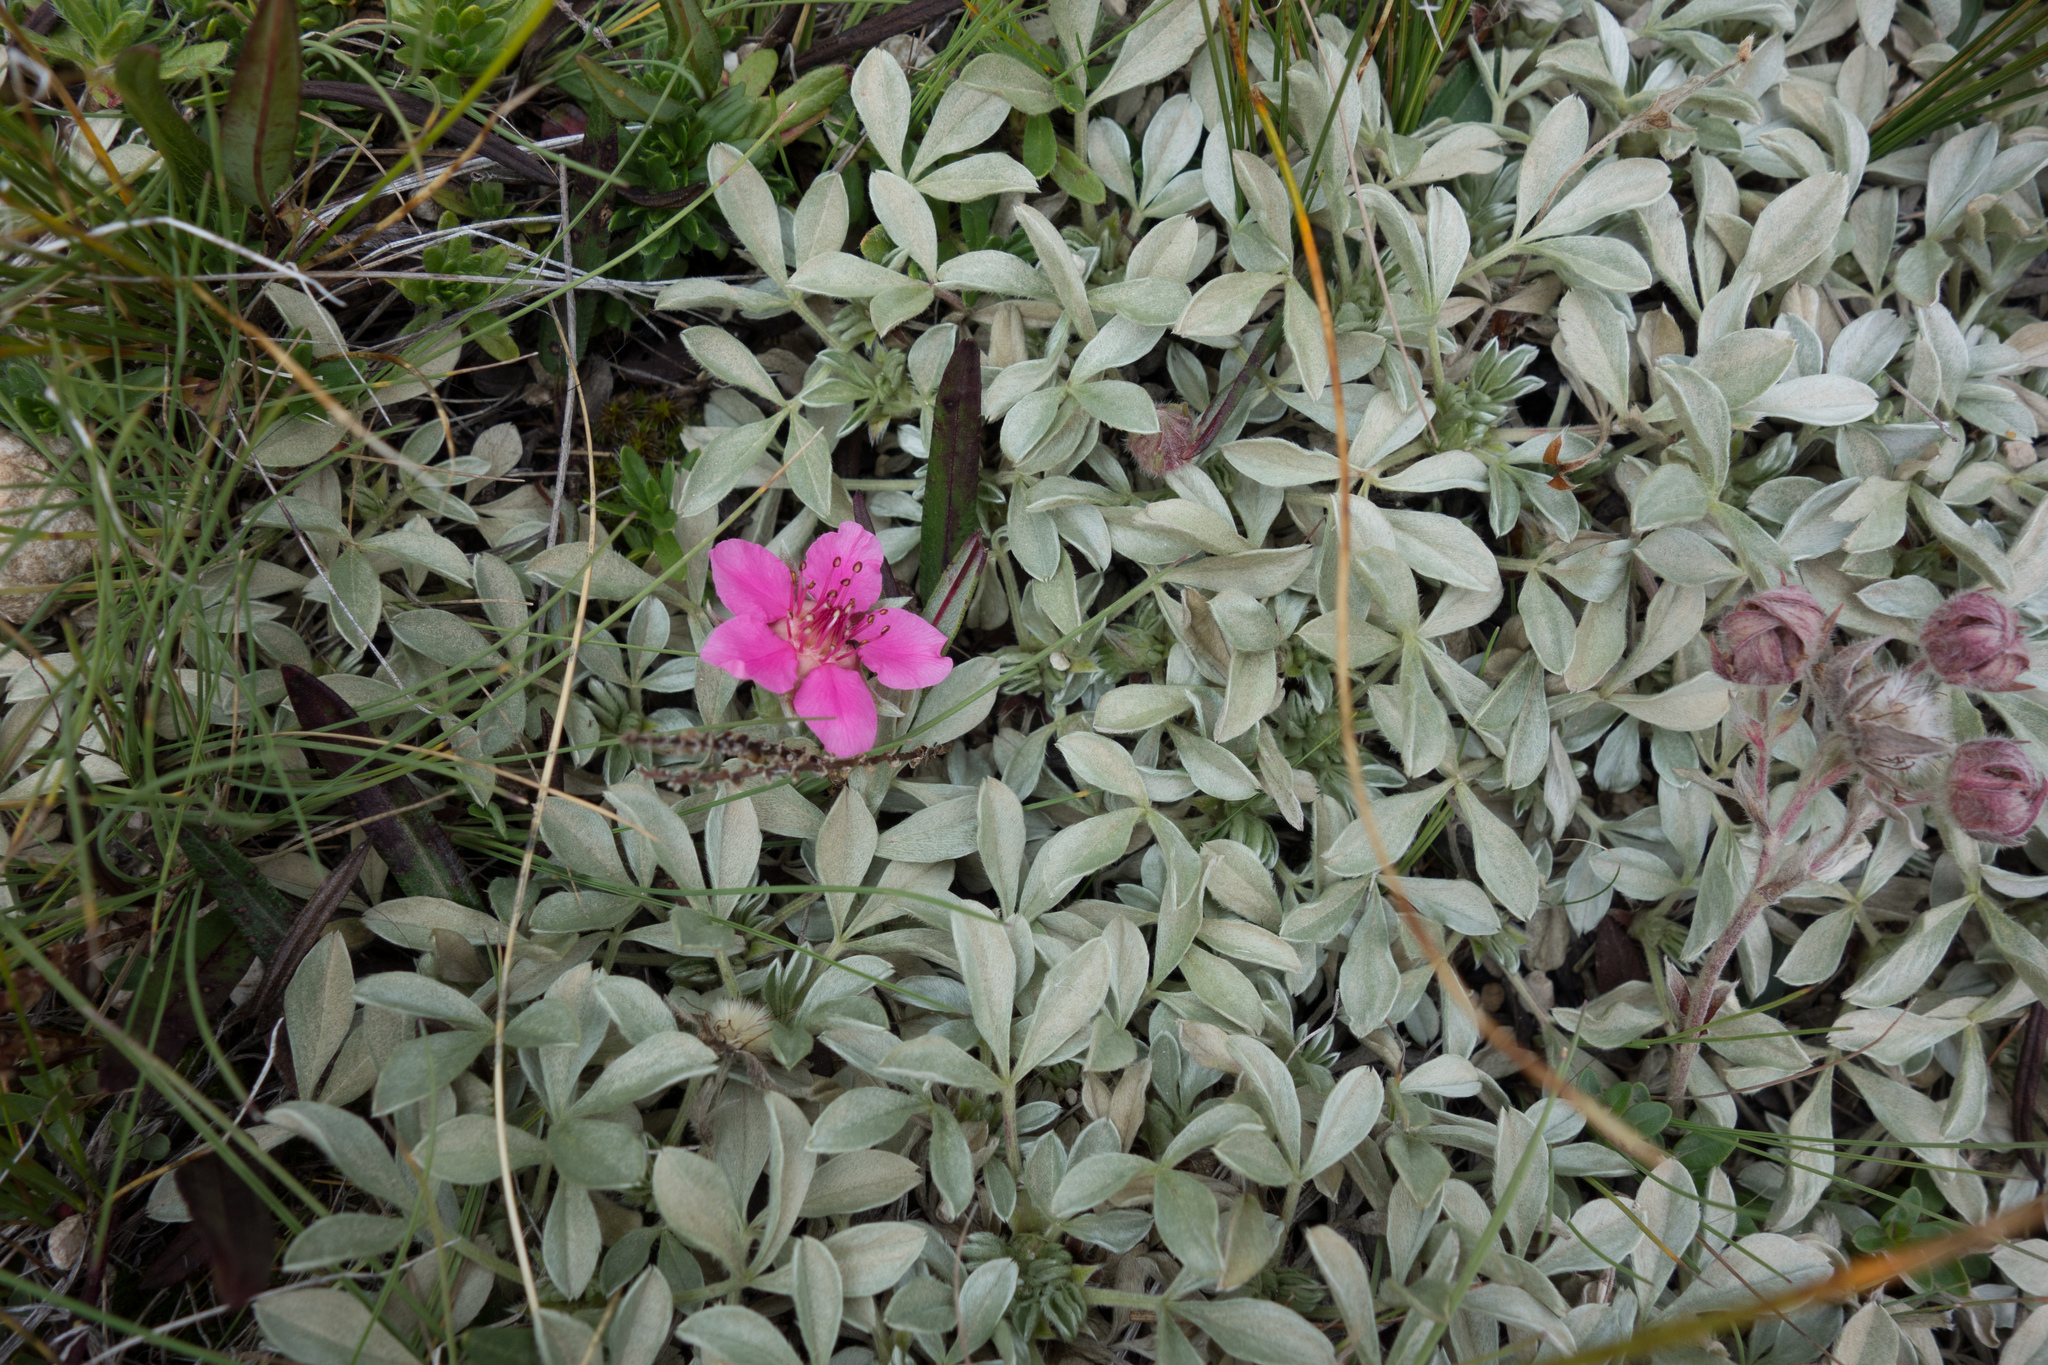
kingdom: Plantae
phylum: Tracheophyta
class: Magnoliopsida
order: Rosales
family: Rosaceae
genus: Potentilla
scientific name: Potentilla nitida
